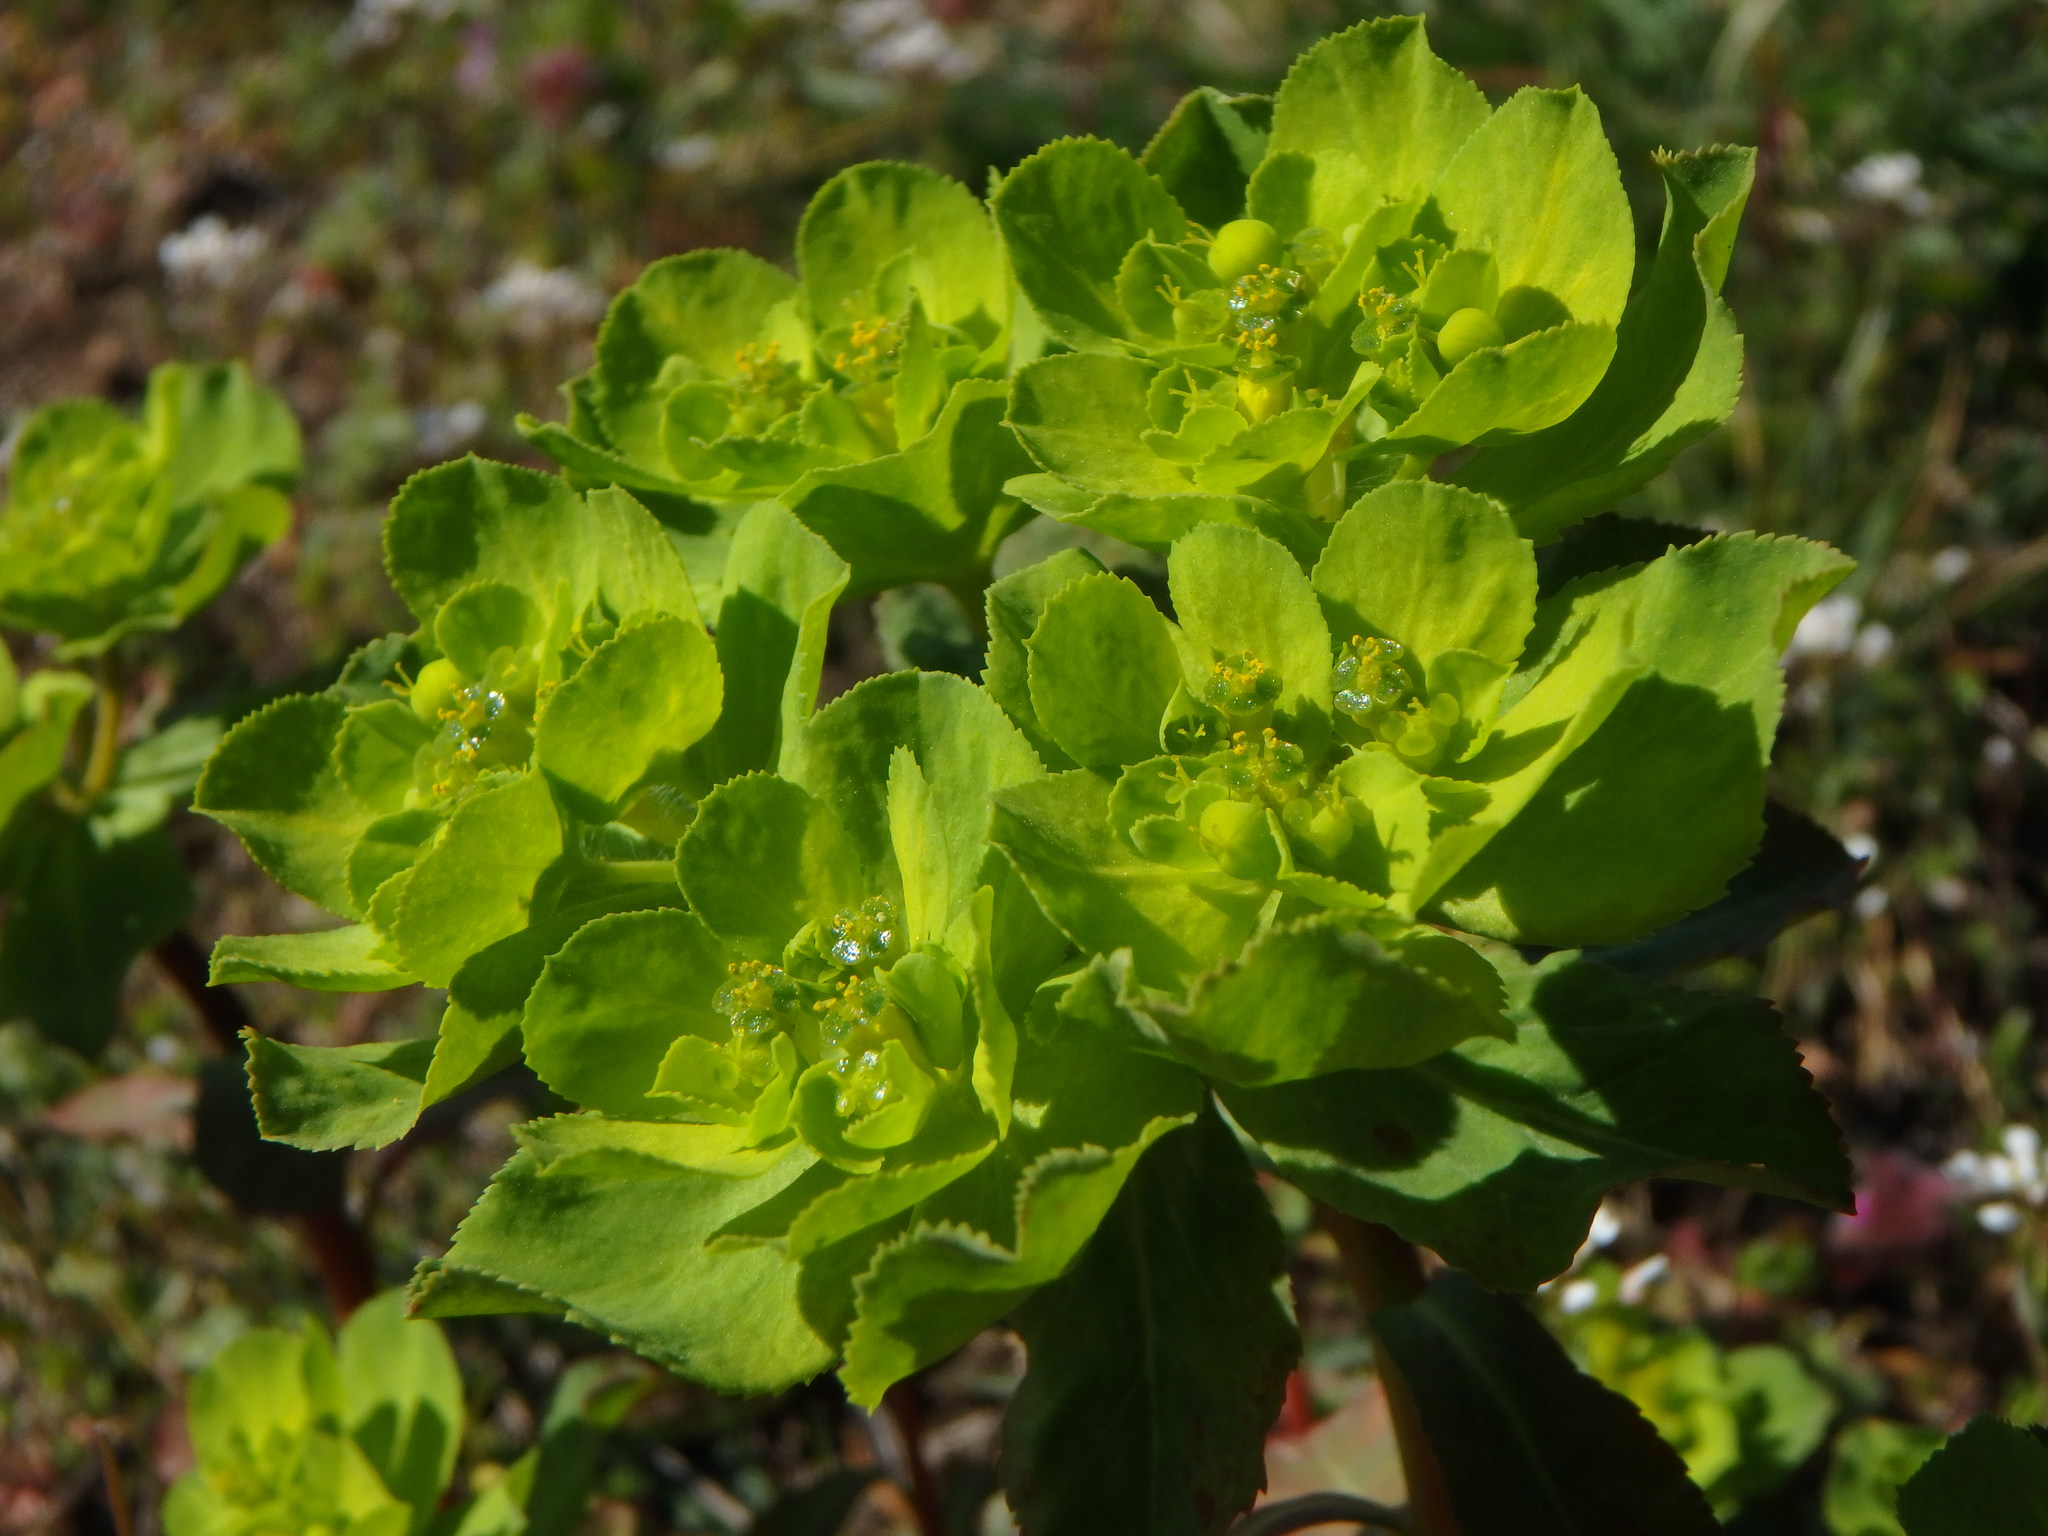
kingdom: Plantae
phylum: Tracheophyta
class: Magnoliopsida
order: Malpighiales
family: Euphorbiaceae
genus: Euphorbia
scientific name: Euphorbia helioscopia
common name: Sun spurge
